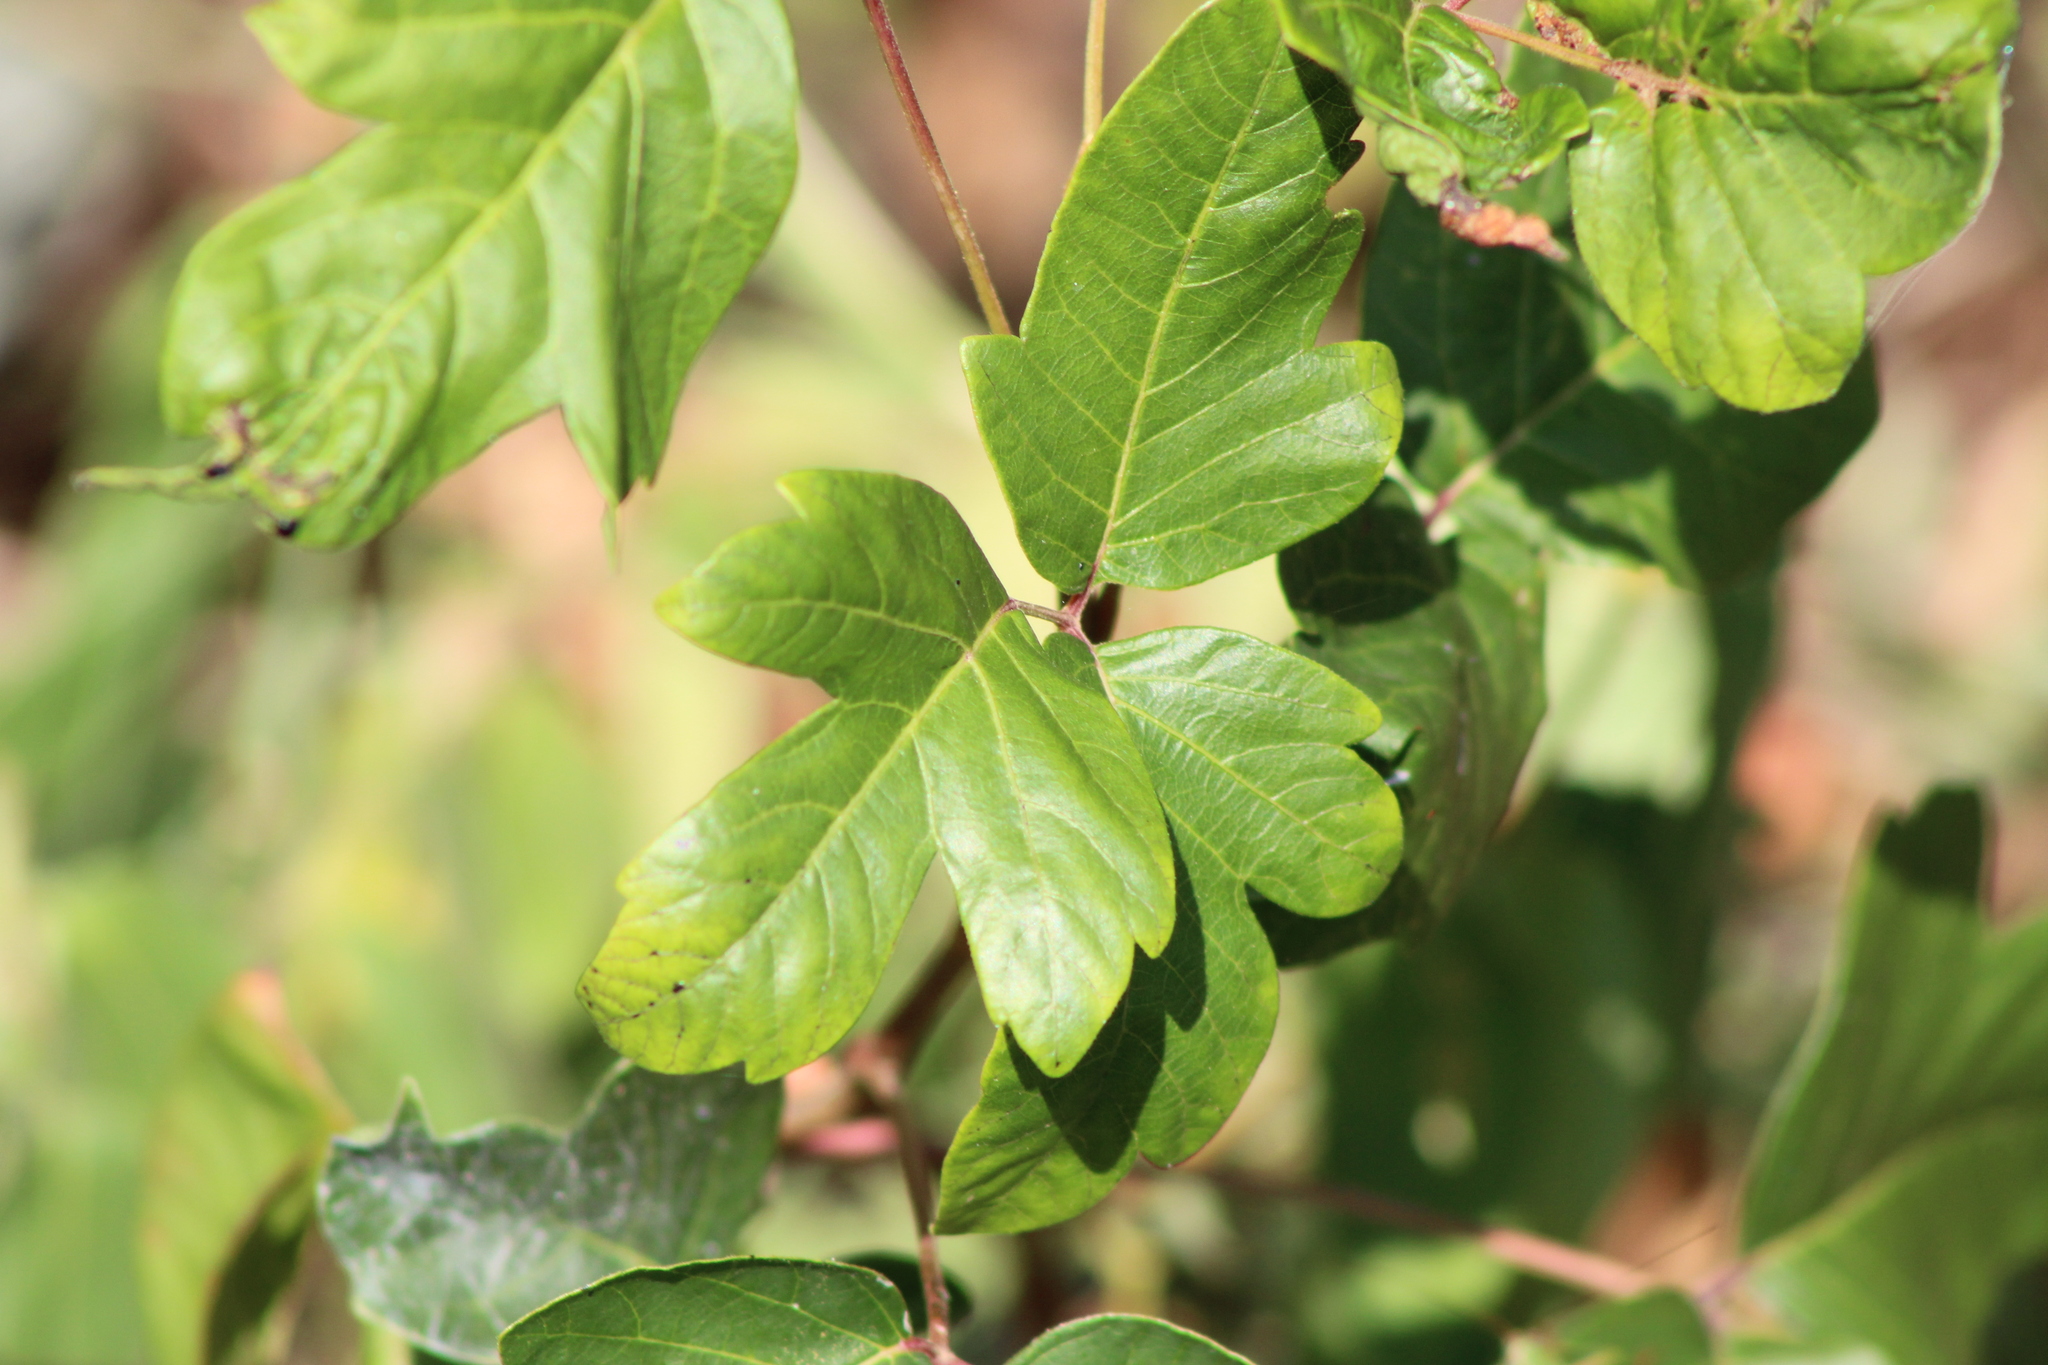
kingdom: Plantae
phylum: Tracheophyta
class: Magnoliopsida
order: Sapindales
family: Anacardiaceae
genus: Toxicodendron
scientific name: Toxicodendron radicans
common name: Poison ivy
